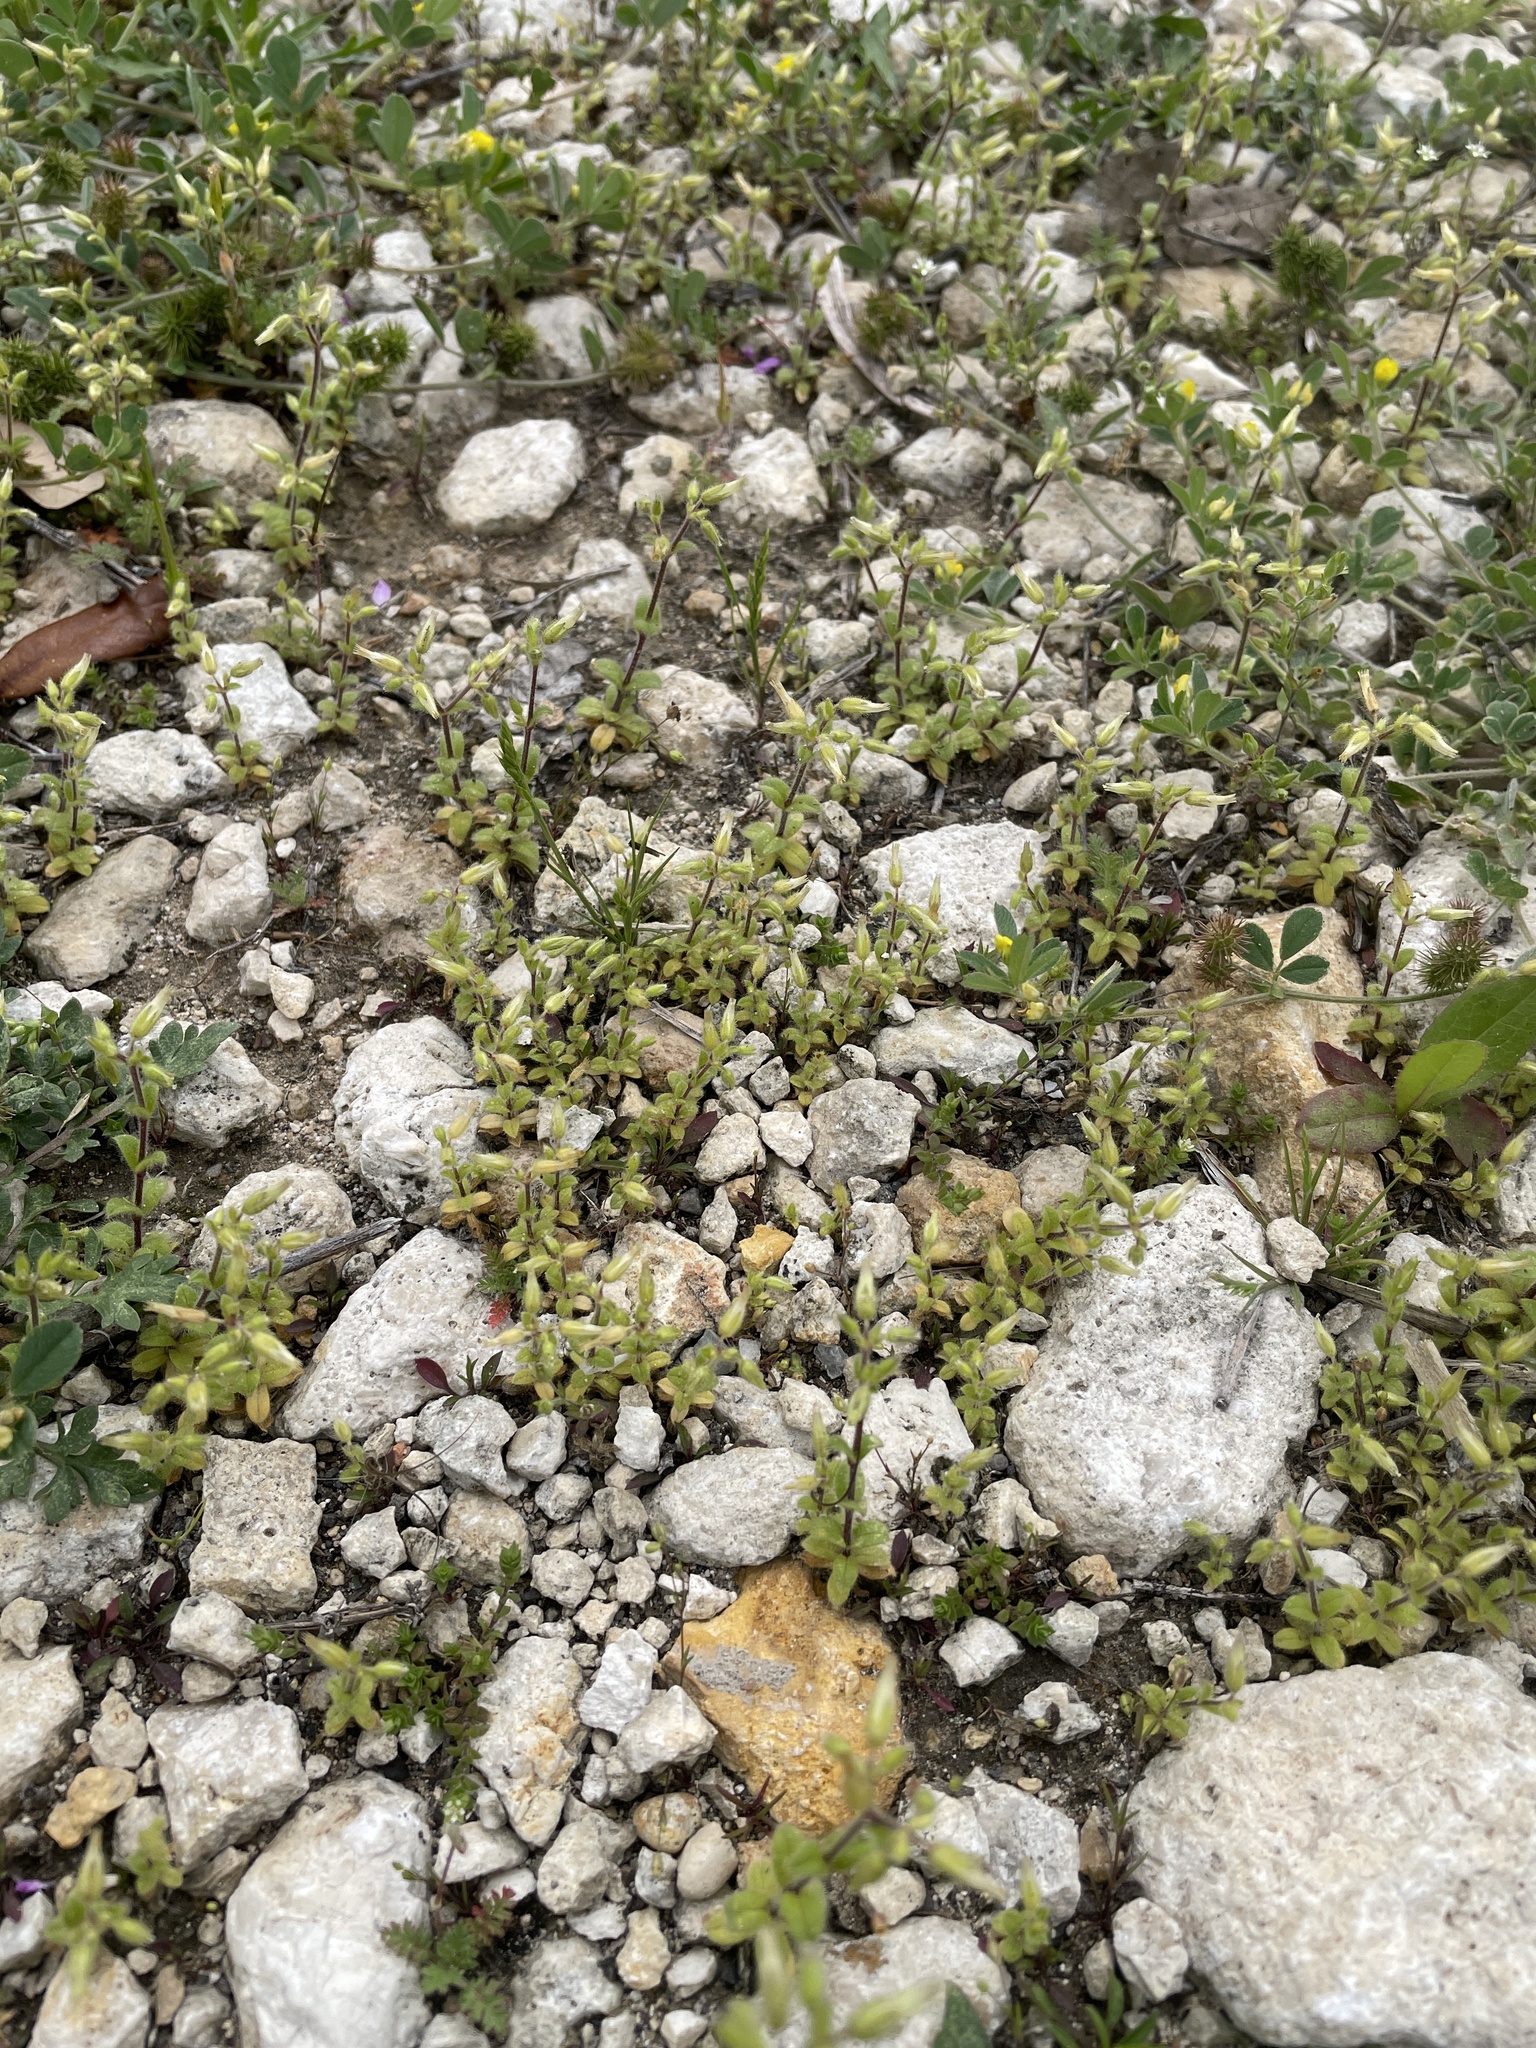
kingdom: Plantae
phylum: Tracheophyta
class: Magnoliopsida
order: Caryophyllales
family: Caryophyllaceae
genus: Cerastium
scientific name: Cerastium glomeratum
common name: Sticky chickweed
